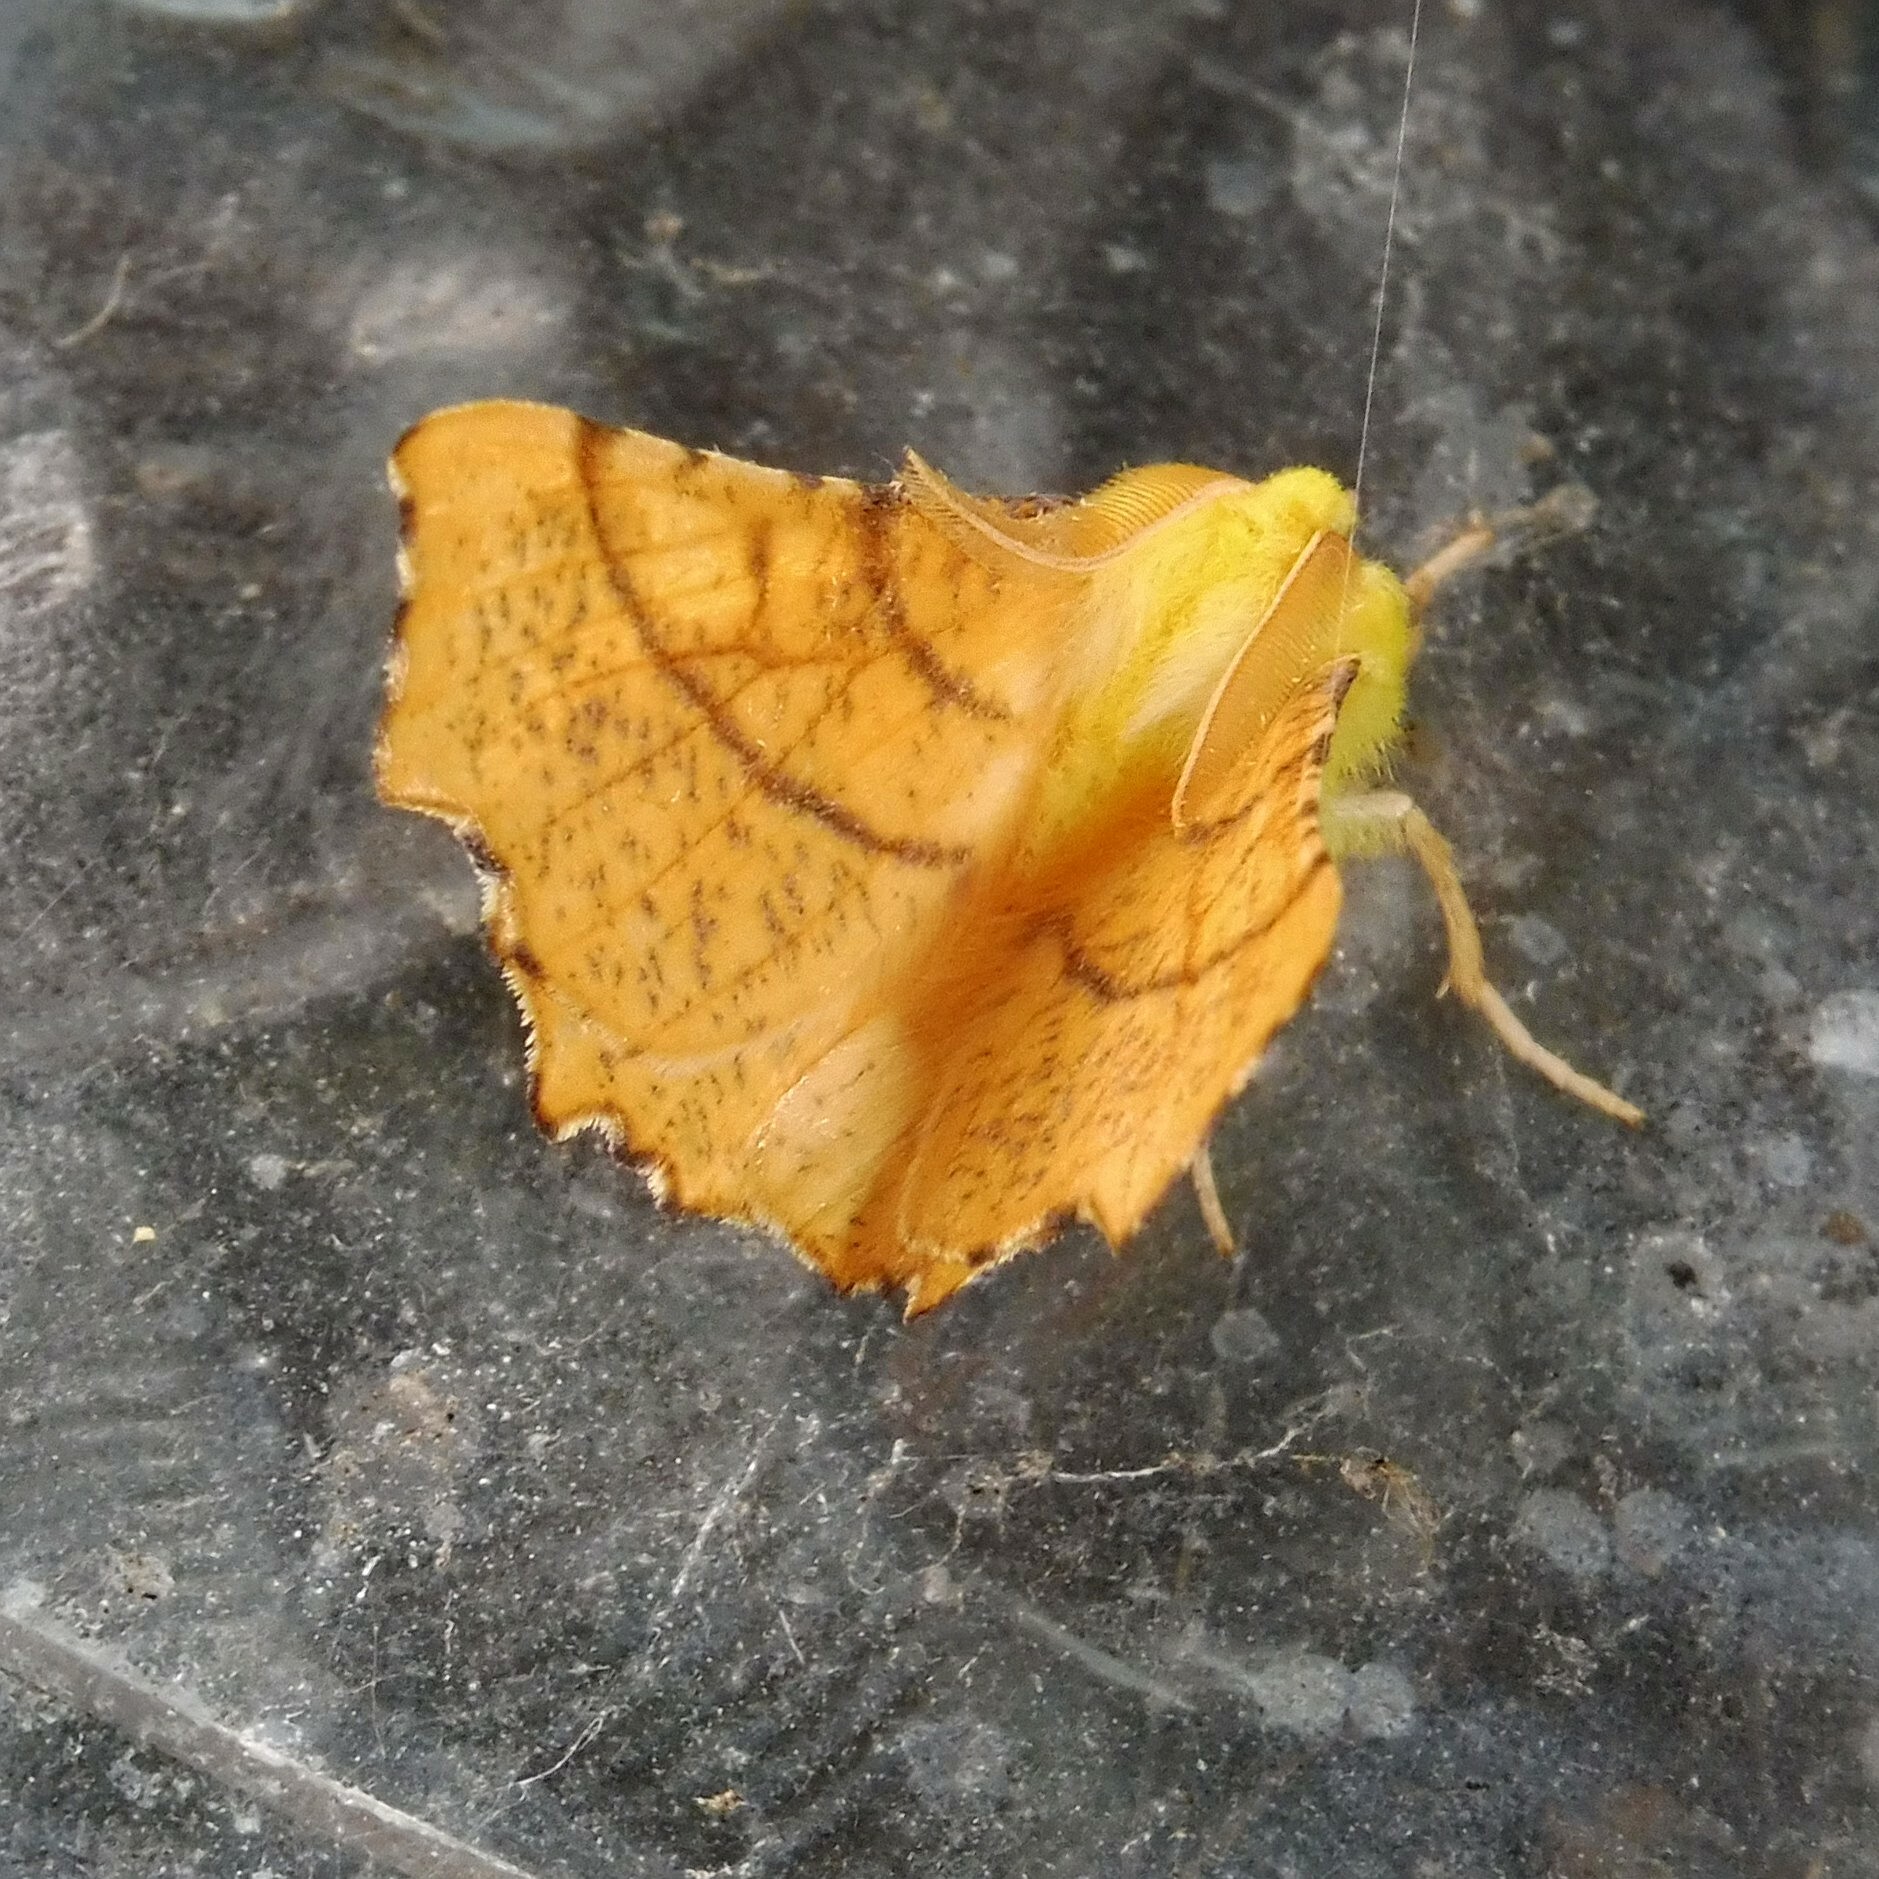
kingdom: Animalia
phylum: Arthropoda
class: Insecta
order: Lepidoptera
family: Geometridae
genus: Ennomos
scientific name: Ennomos alniaria
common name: Canary-shouldered thorn
